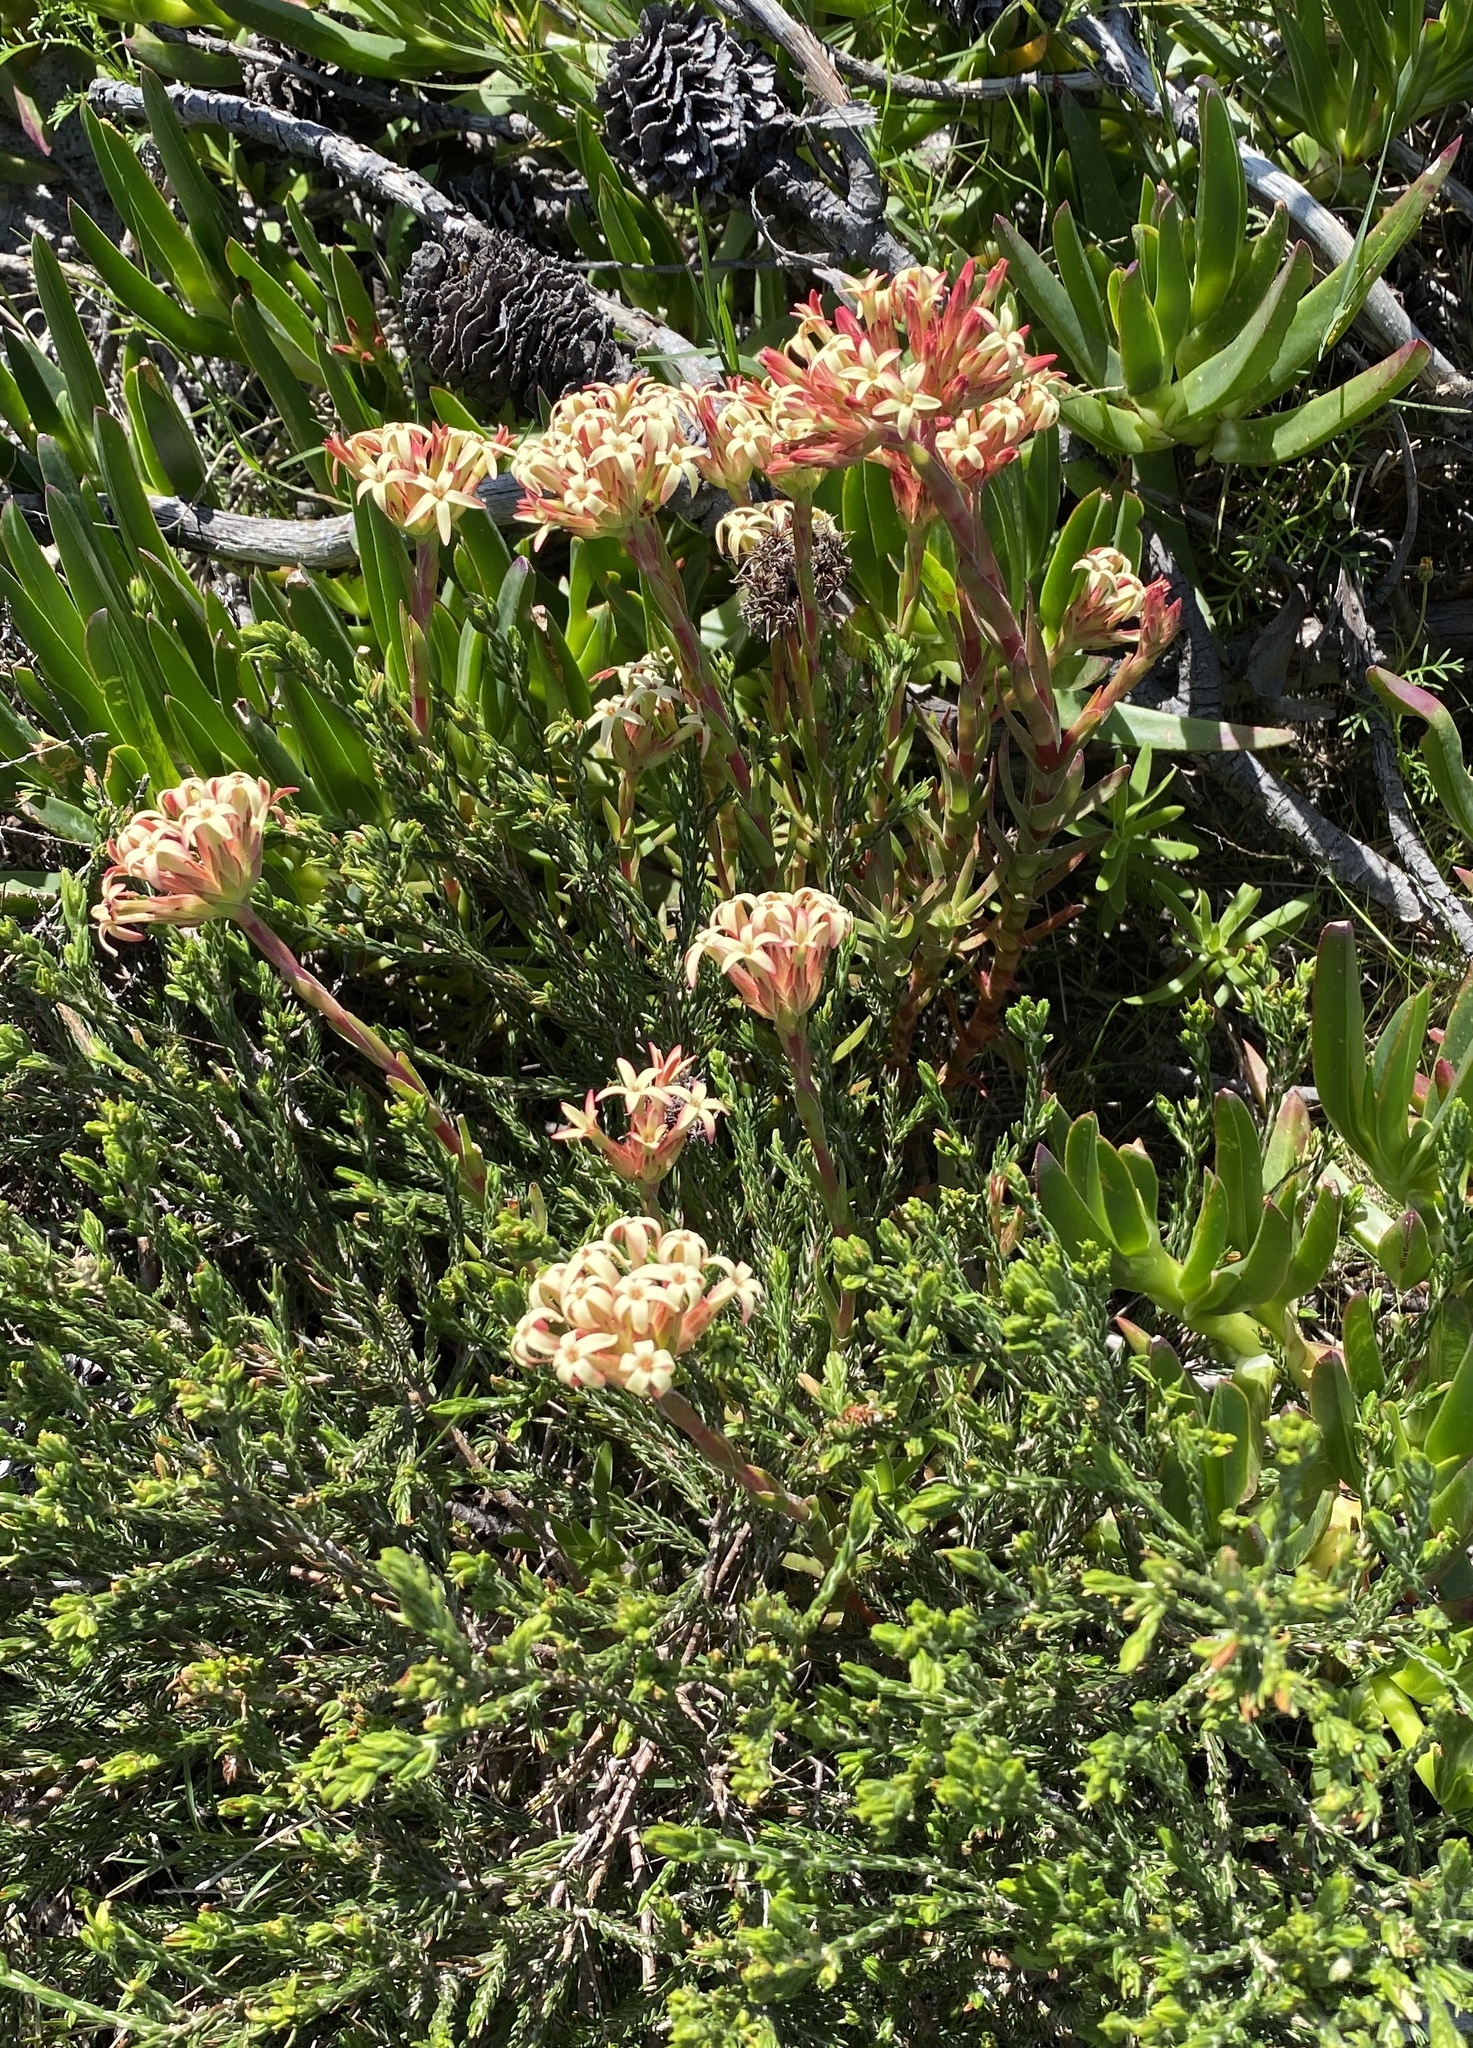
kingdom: Plantae
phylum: Tracheophyta
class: Magnoliopsida
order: Saxifragales
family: Crassulaceae
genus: Crassula
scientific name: Crassula fascicularis
